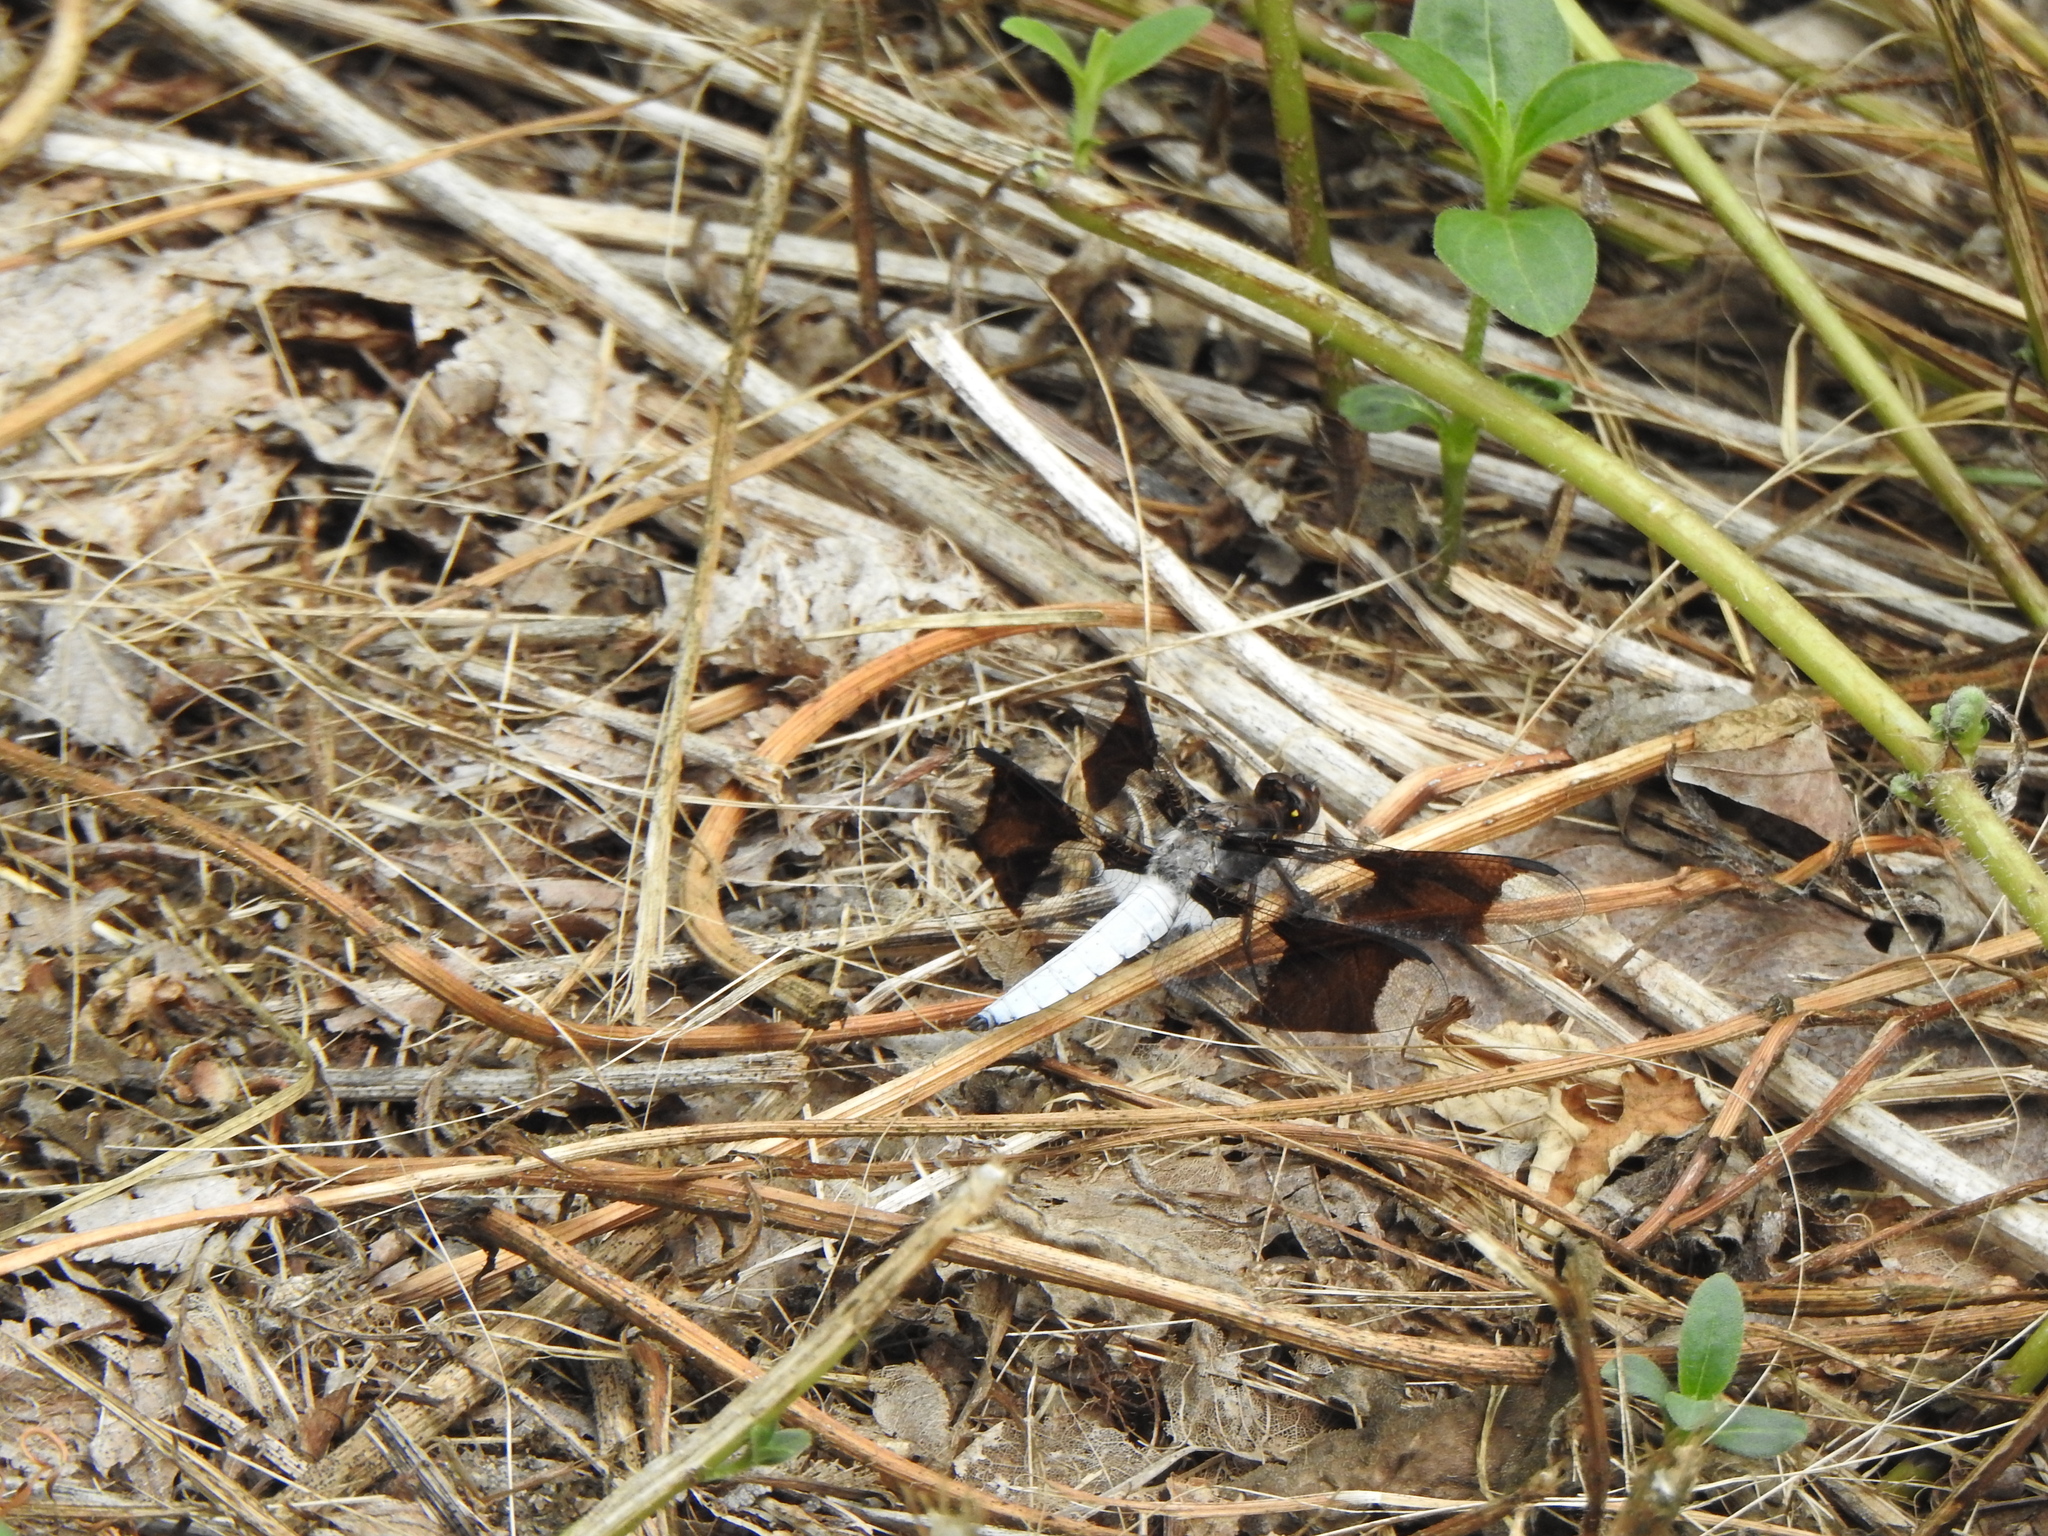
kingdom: Animalia
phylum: Arthropoda
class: Insecta
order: Odonata
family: Libellulidae
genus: Plathemis
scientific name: Plathemis lydia
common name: Common whitetail
